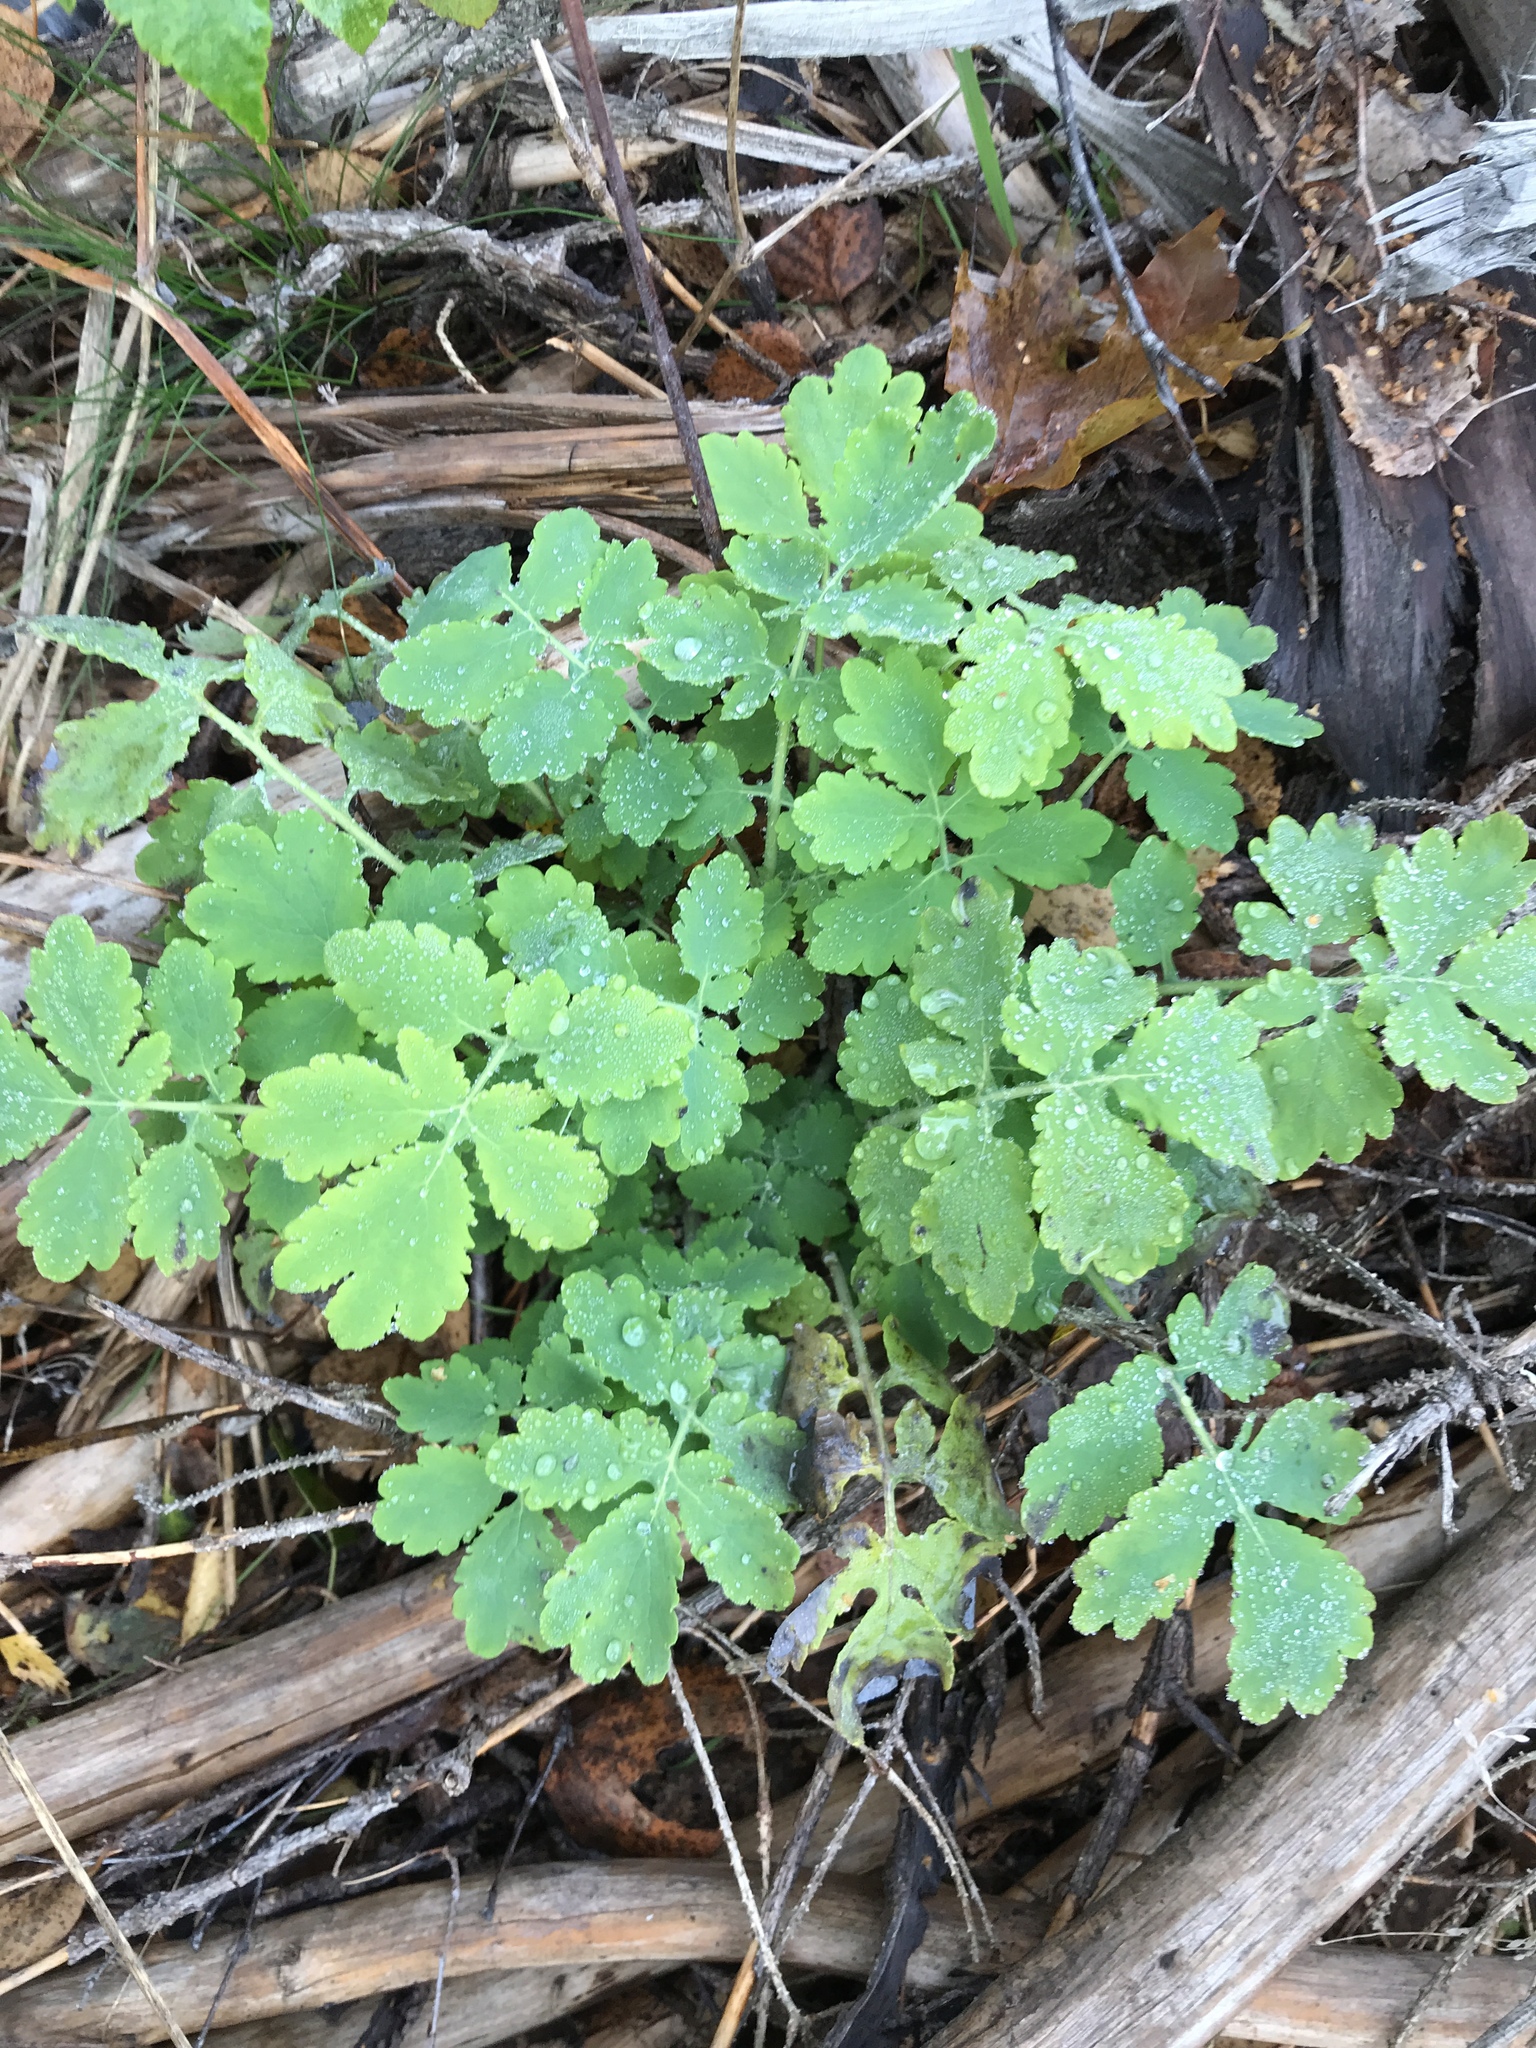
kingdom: Plantae
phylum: Tracheophyta
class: Magnoliopsida
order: Ranunculales
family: Papaveraceae
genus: Chelidonium
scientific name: Chelidonium majus
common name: Greater celandine
